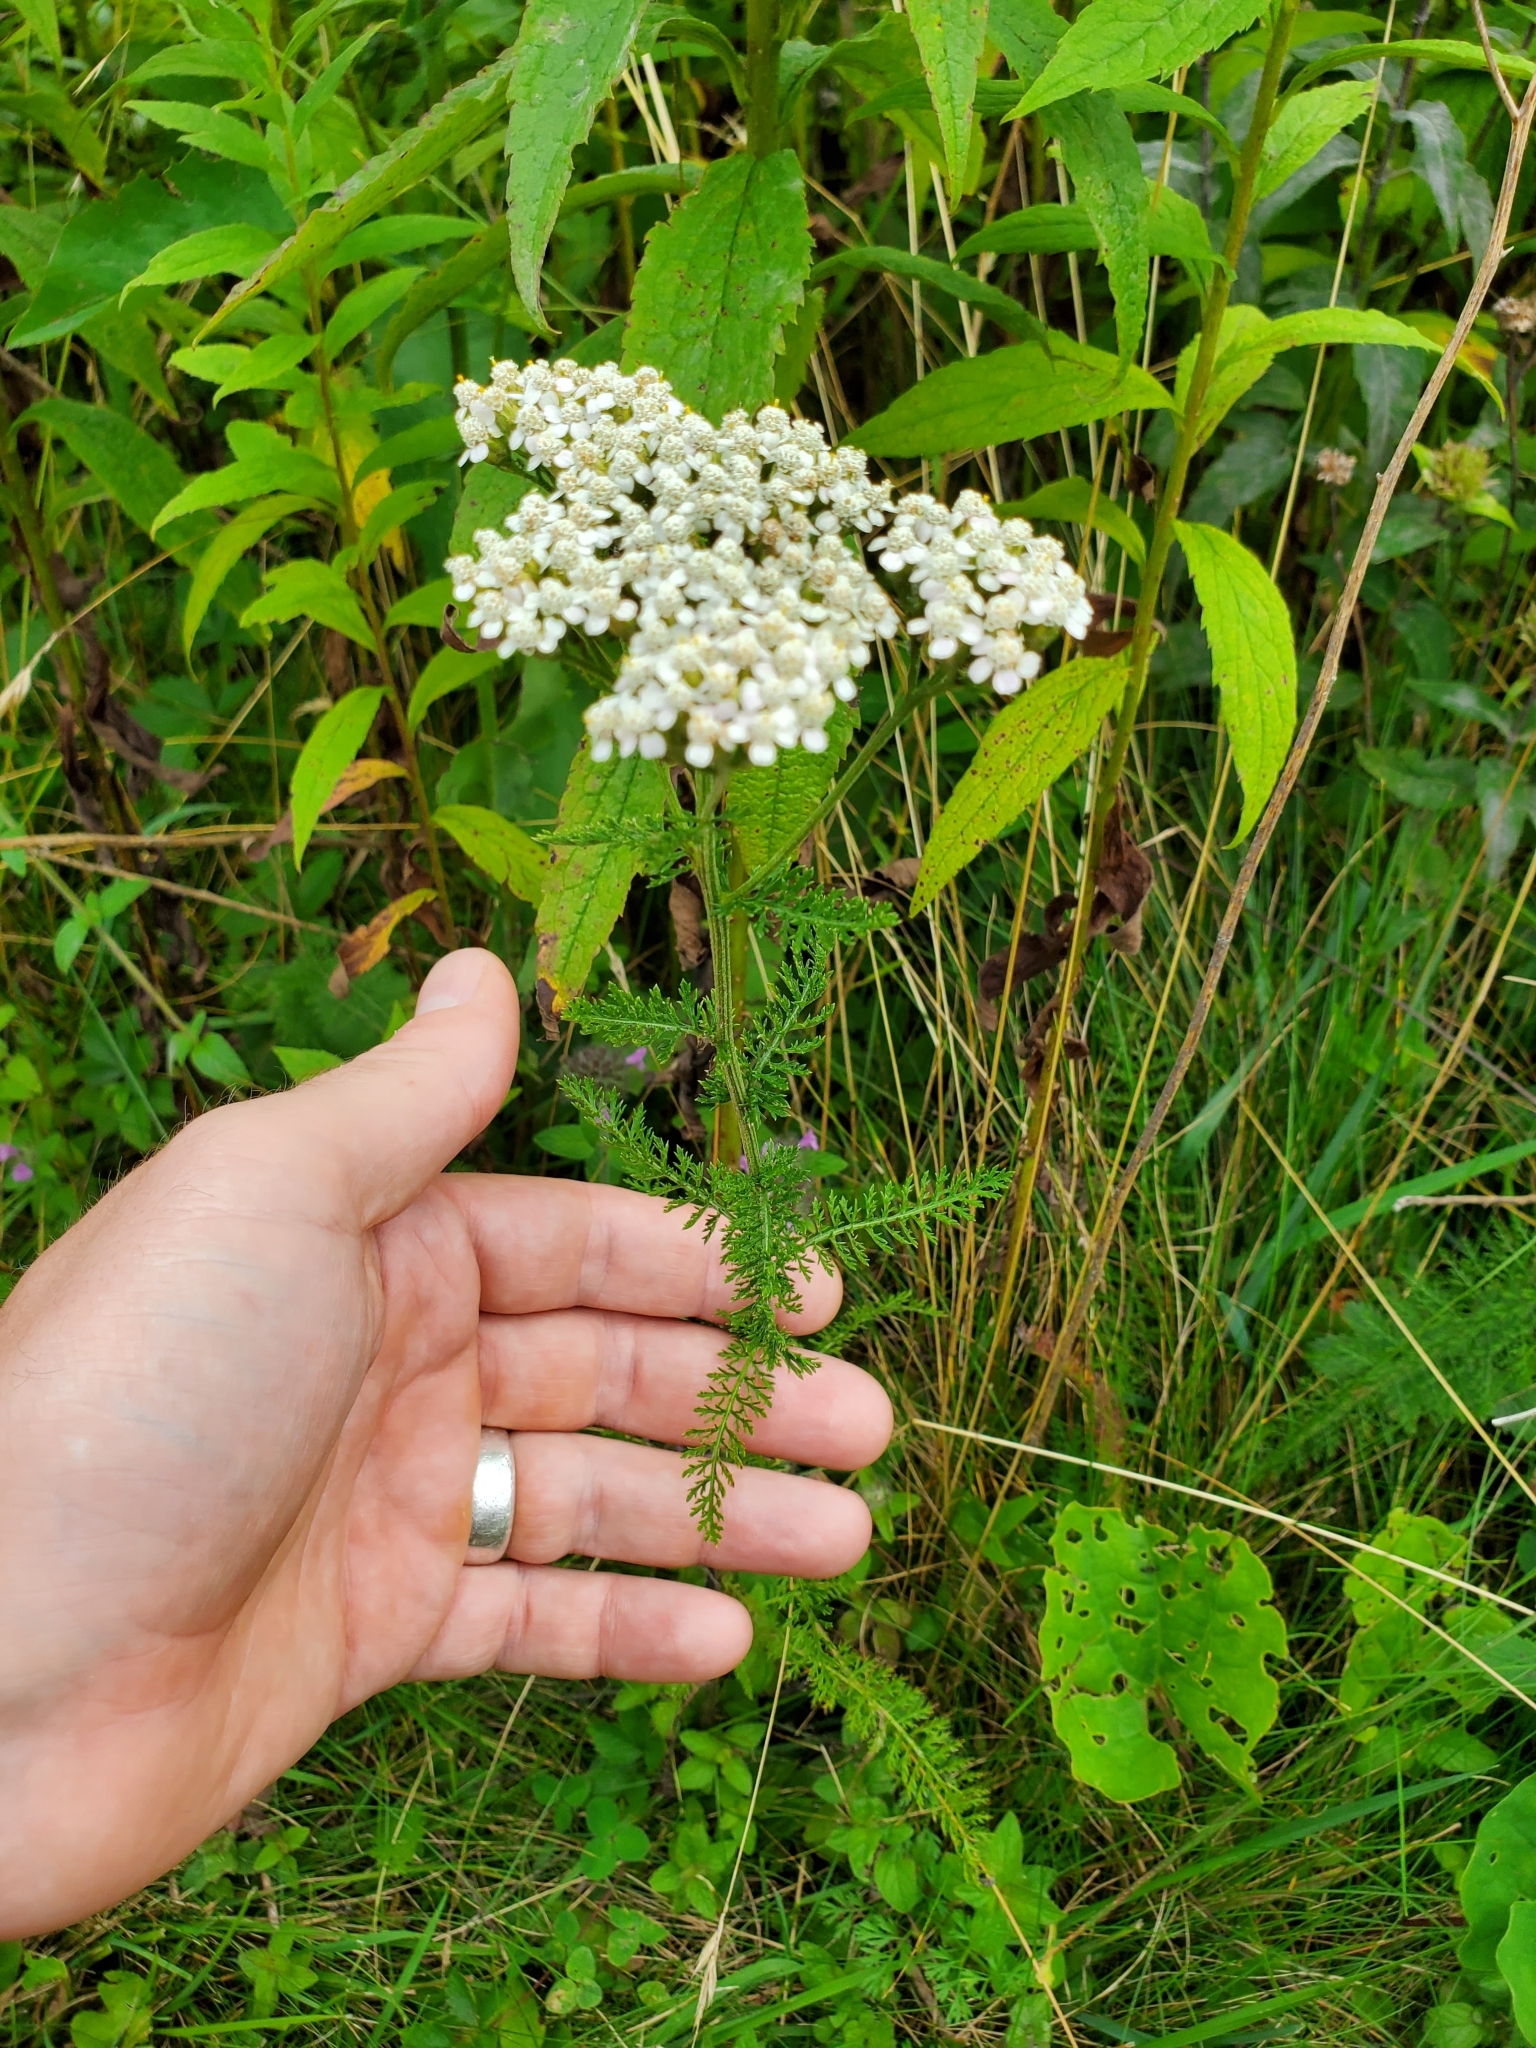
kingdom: Plantae
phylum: Tracheophyta
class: Magnoliopsida
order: Asterales
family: Asteraceae
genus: Achillea
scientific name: Achillea millefolium
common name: Yarrow
